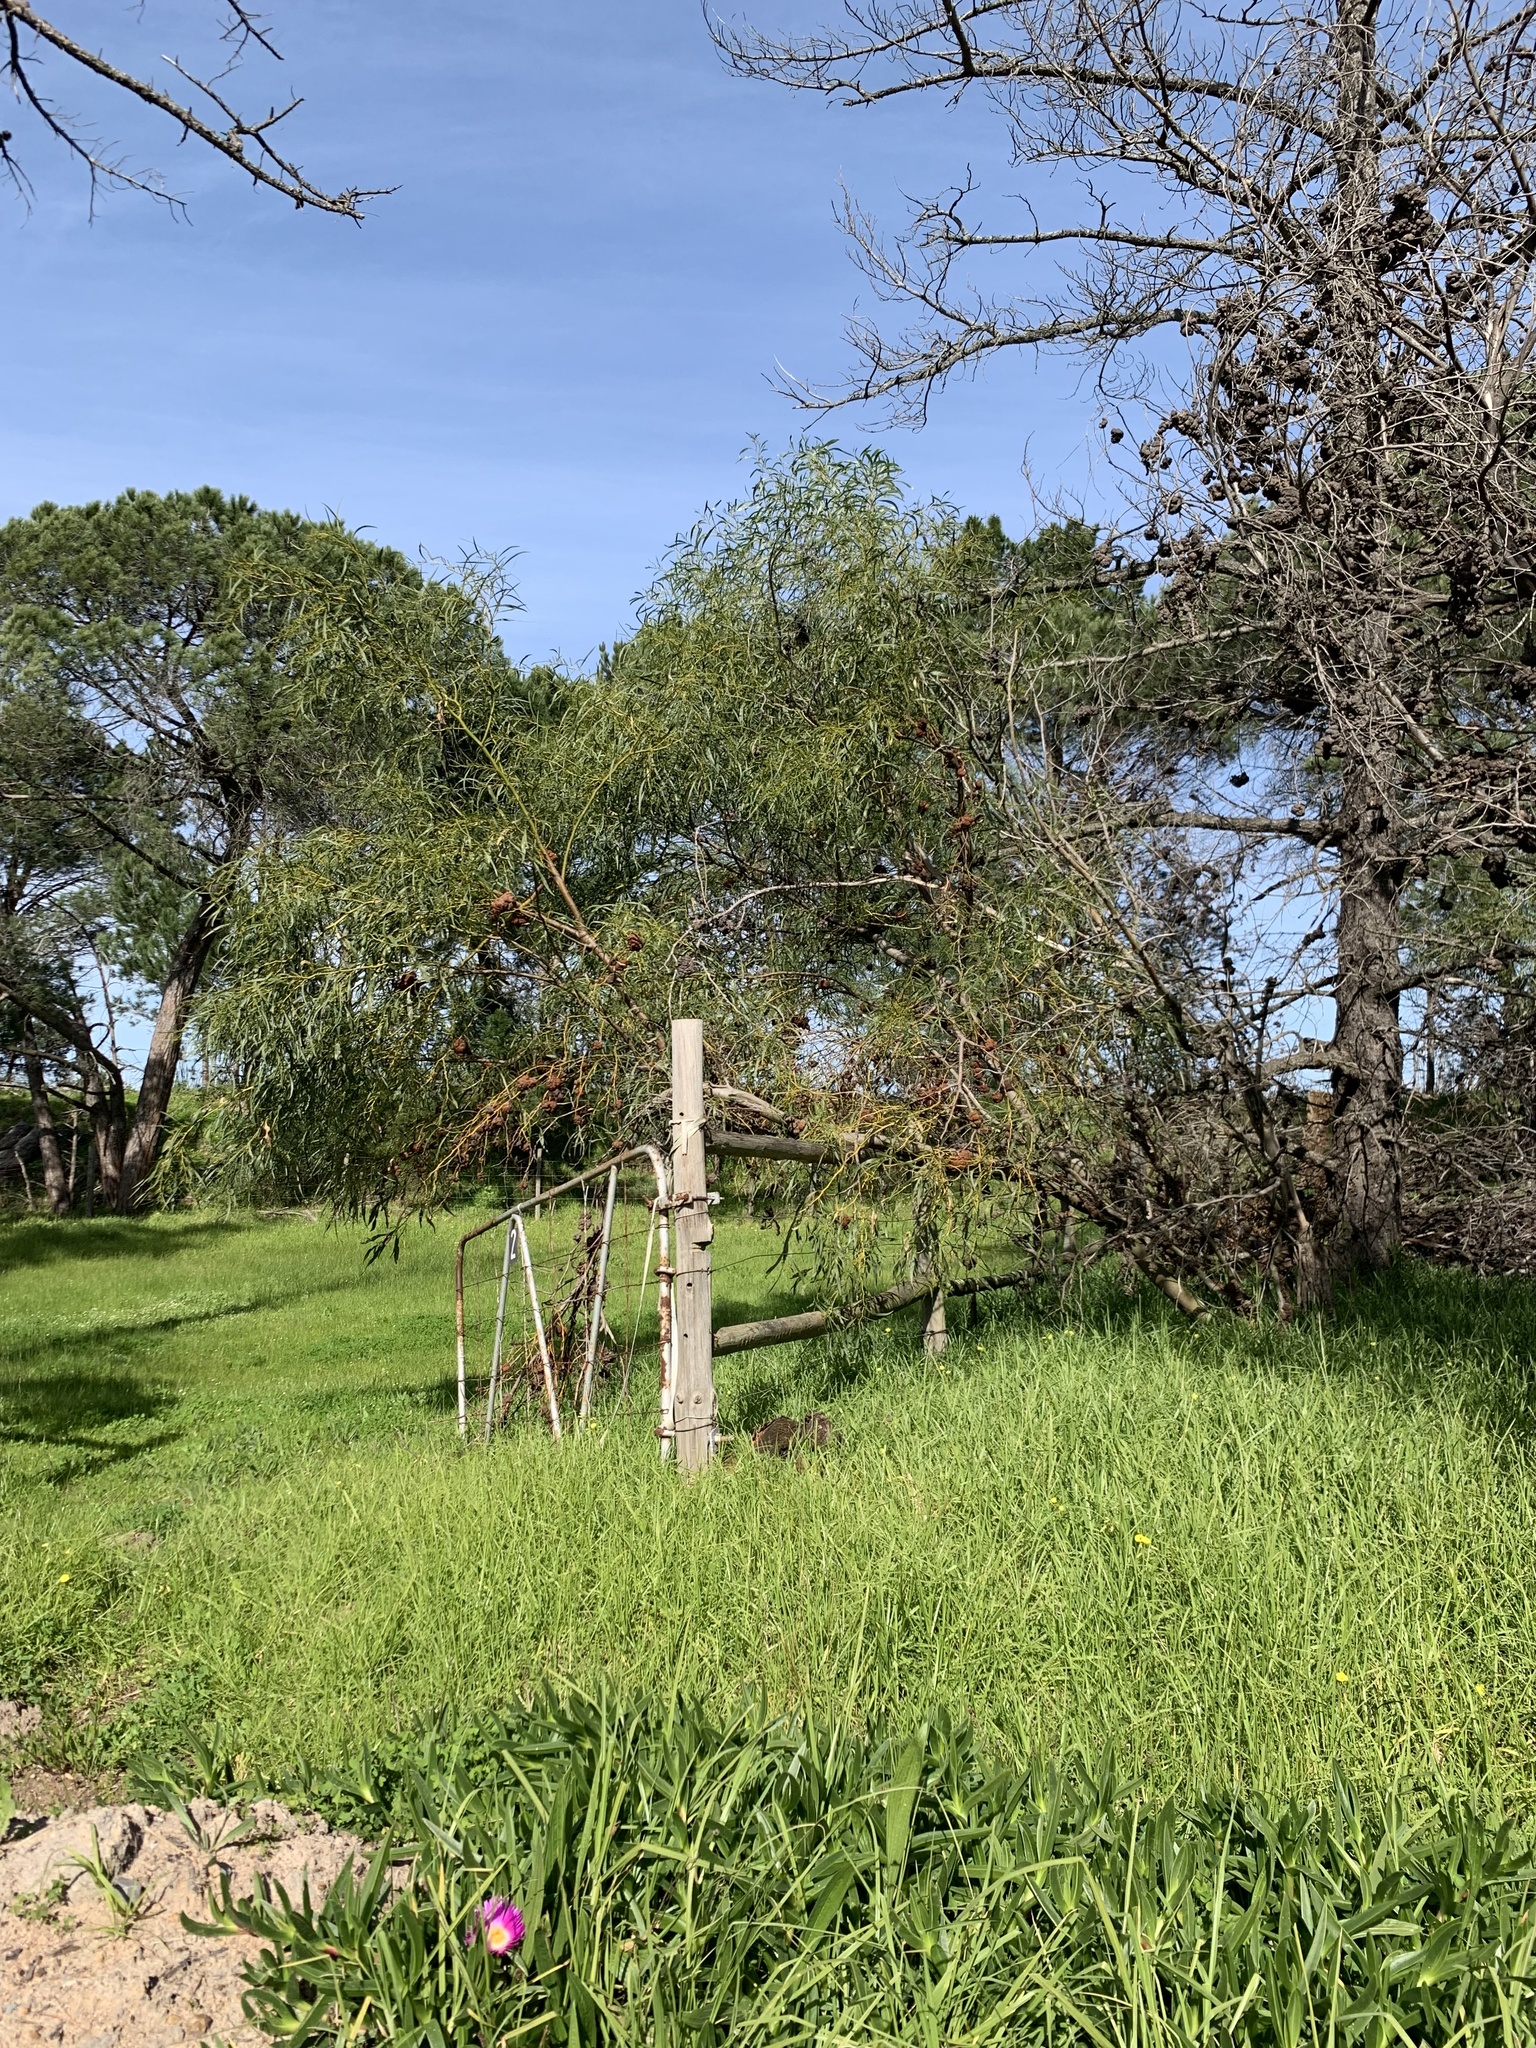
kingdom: Plantae
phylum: Tracheophyta
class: Magnoliopsida
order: Fabales
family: Fabaceae
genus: Acacia
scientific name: Acacia saligna
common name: Orange wattle
